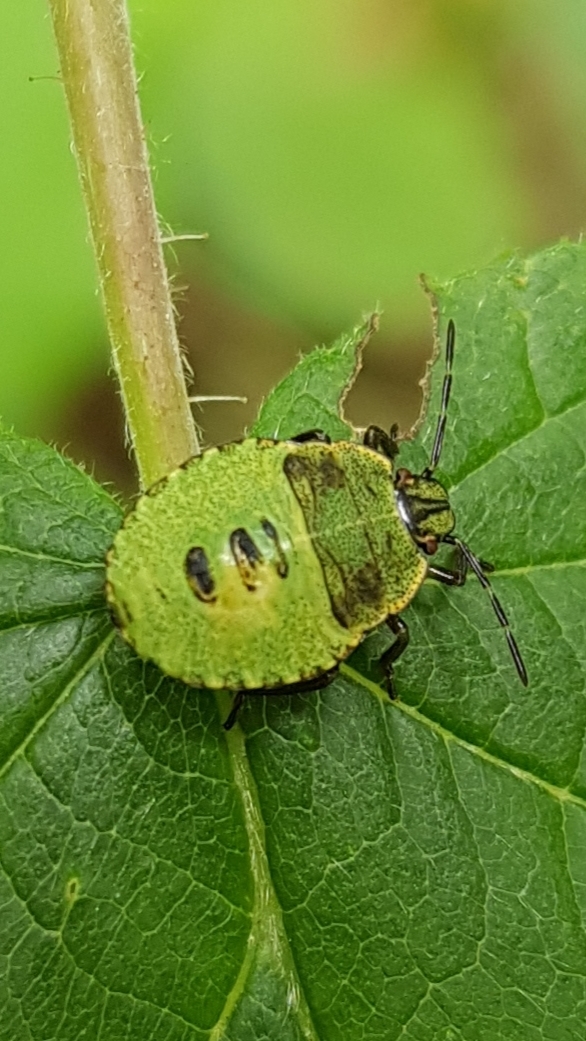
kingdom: Animalia
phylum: Arthropoda
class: Insecta
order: Hemiptera
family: Pentatomidae
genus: Palomena
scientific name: Palomena prasina
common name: Green shieldbug
